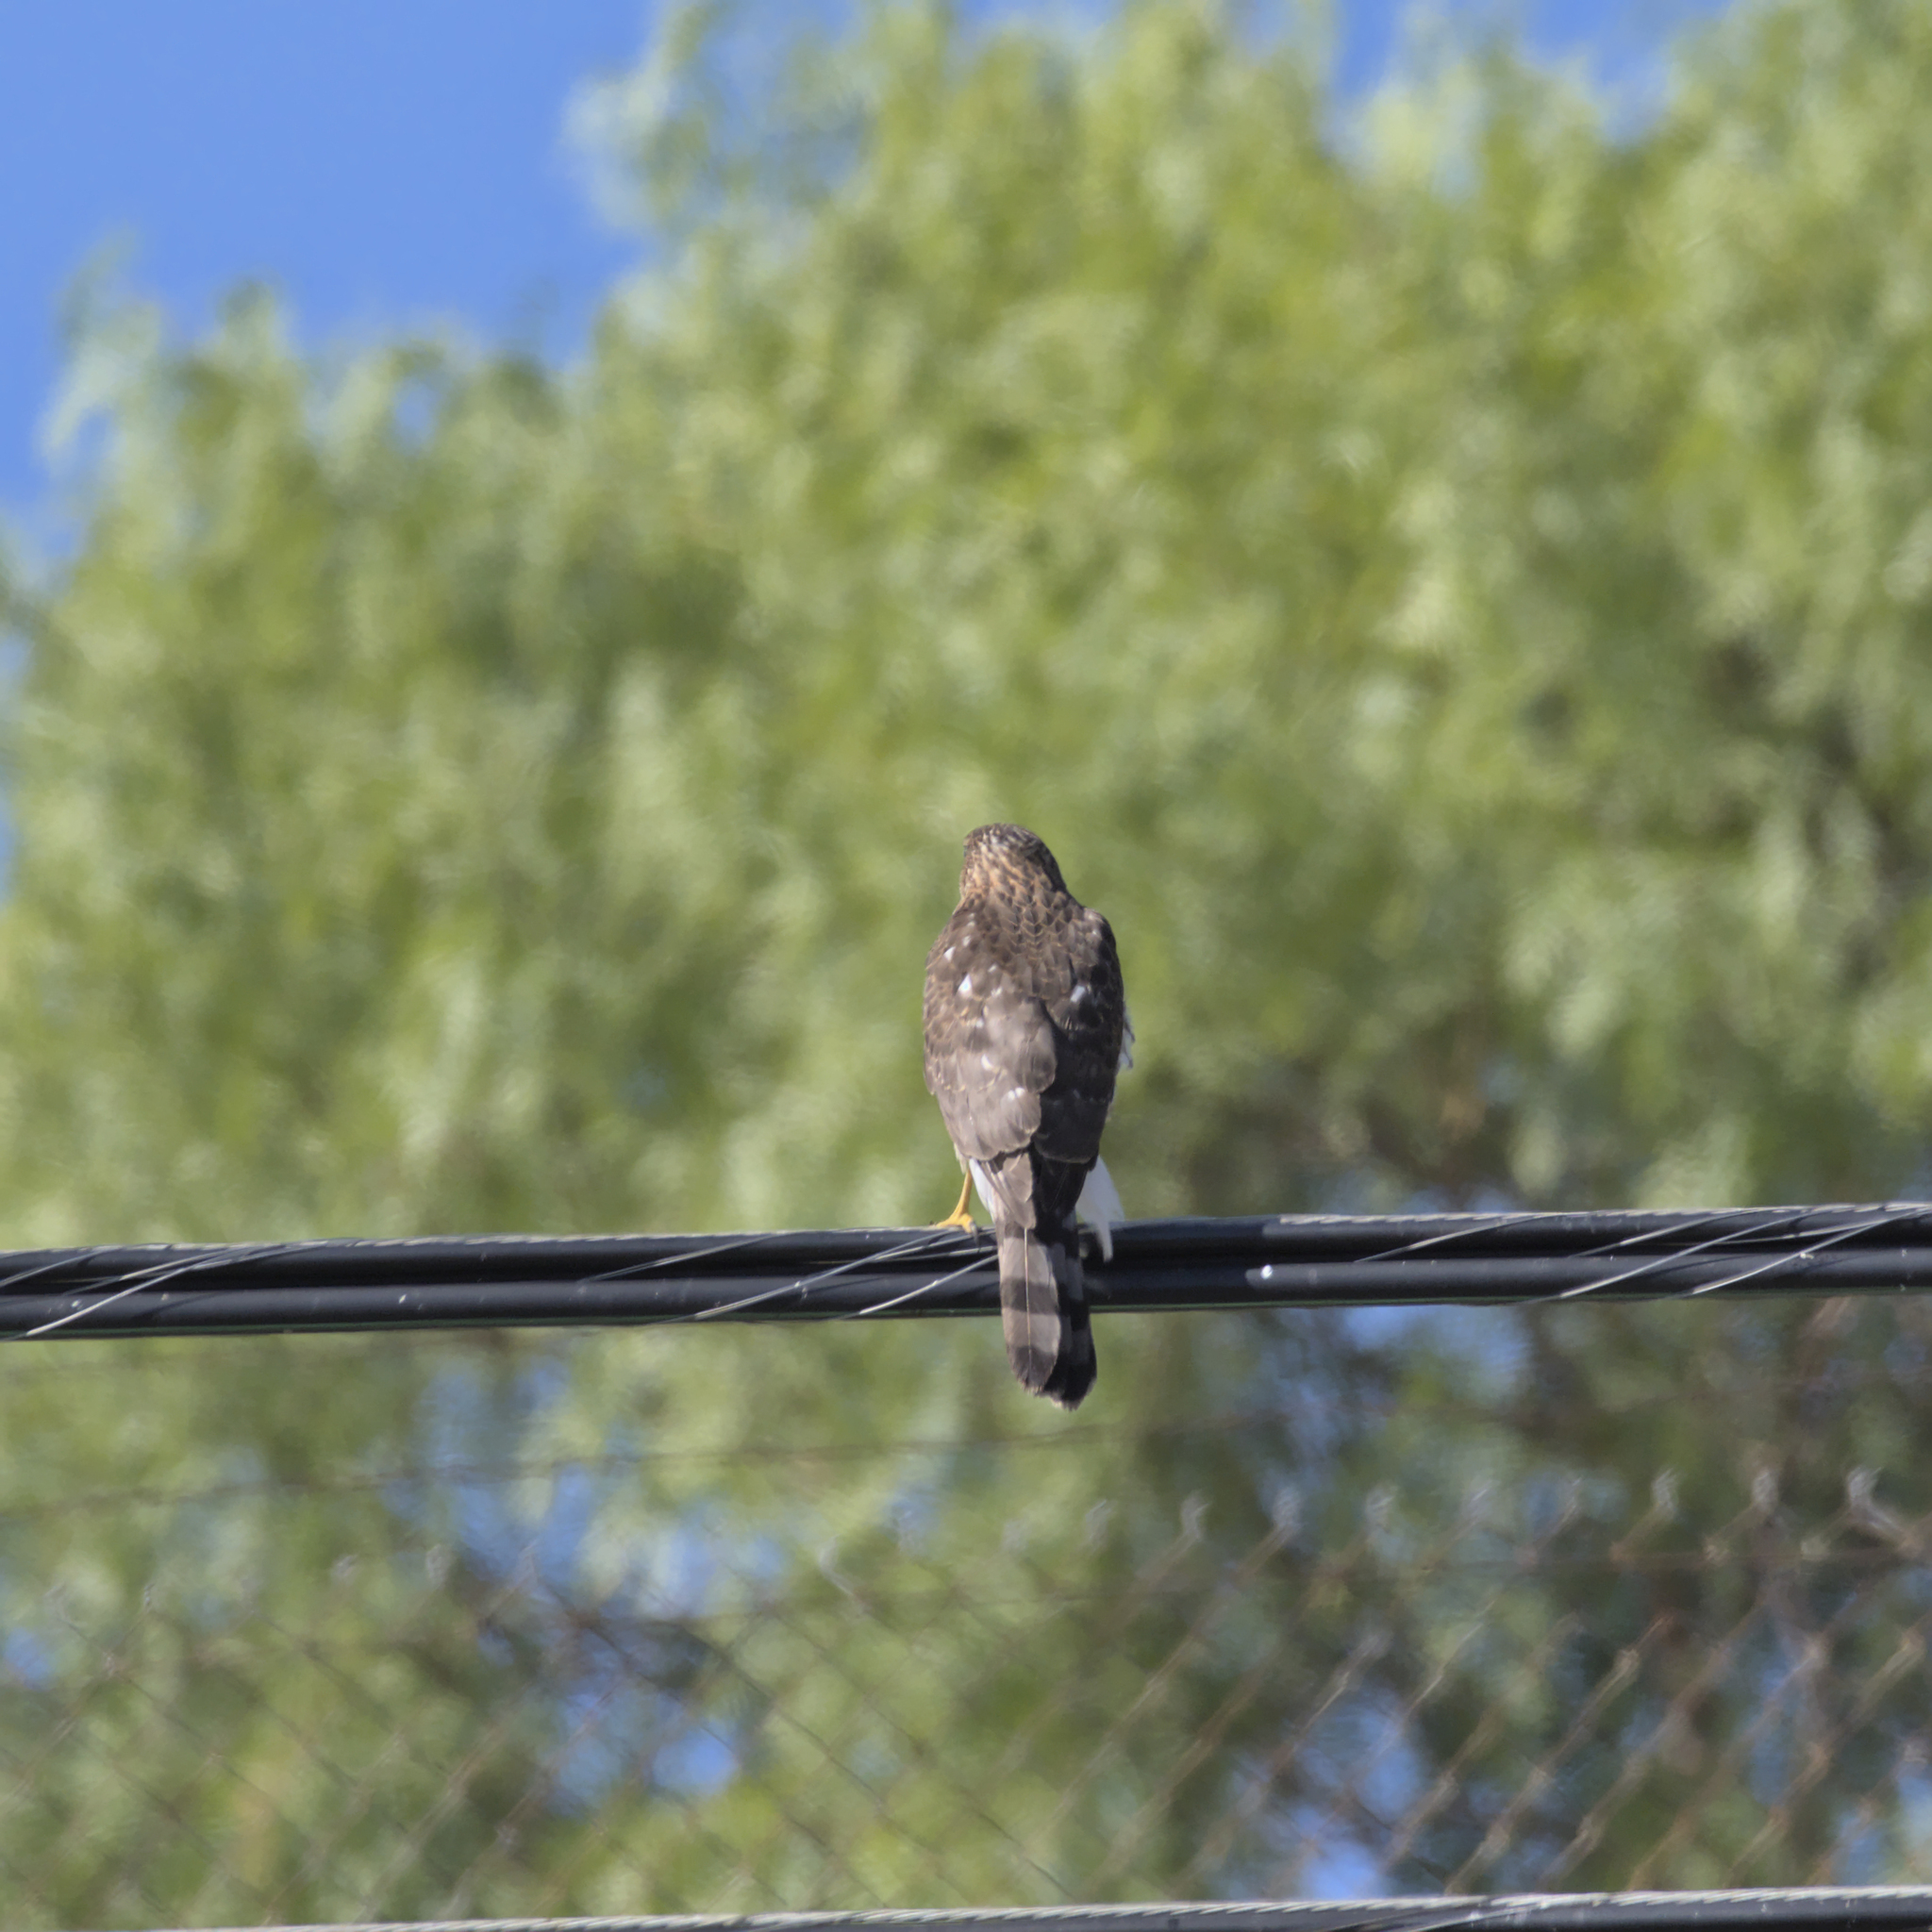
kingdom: Animalia
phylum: Chordata
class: Aves
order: Accipitriformes
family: Accipitridae
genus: Accipiter
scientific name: Accipiter cooperii
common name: Cooper's hawk
